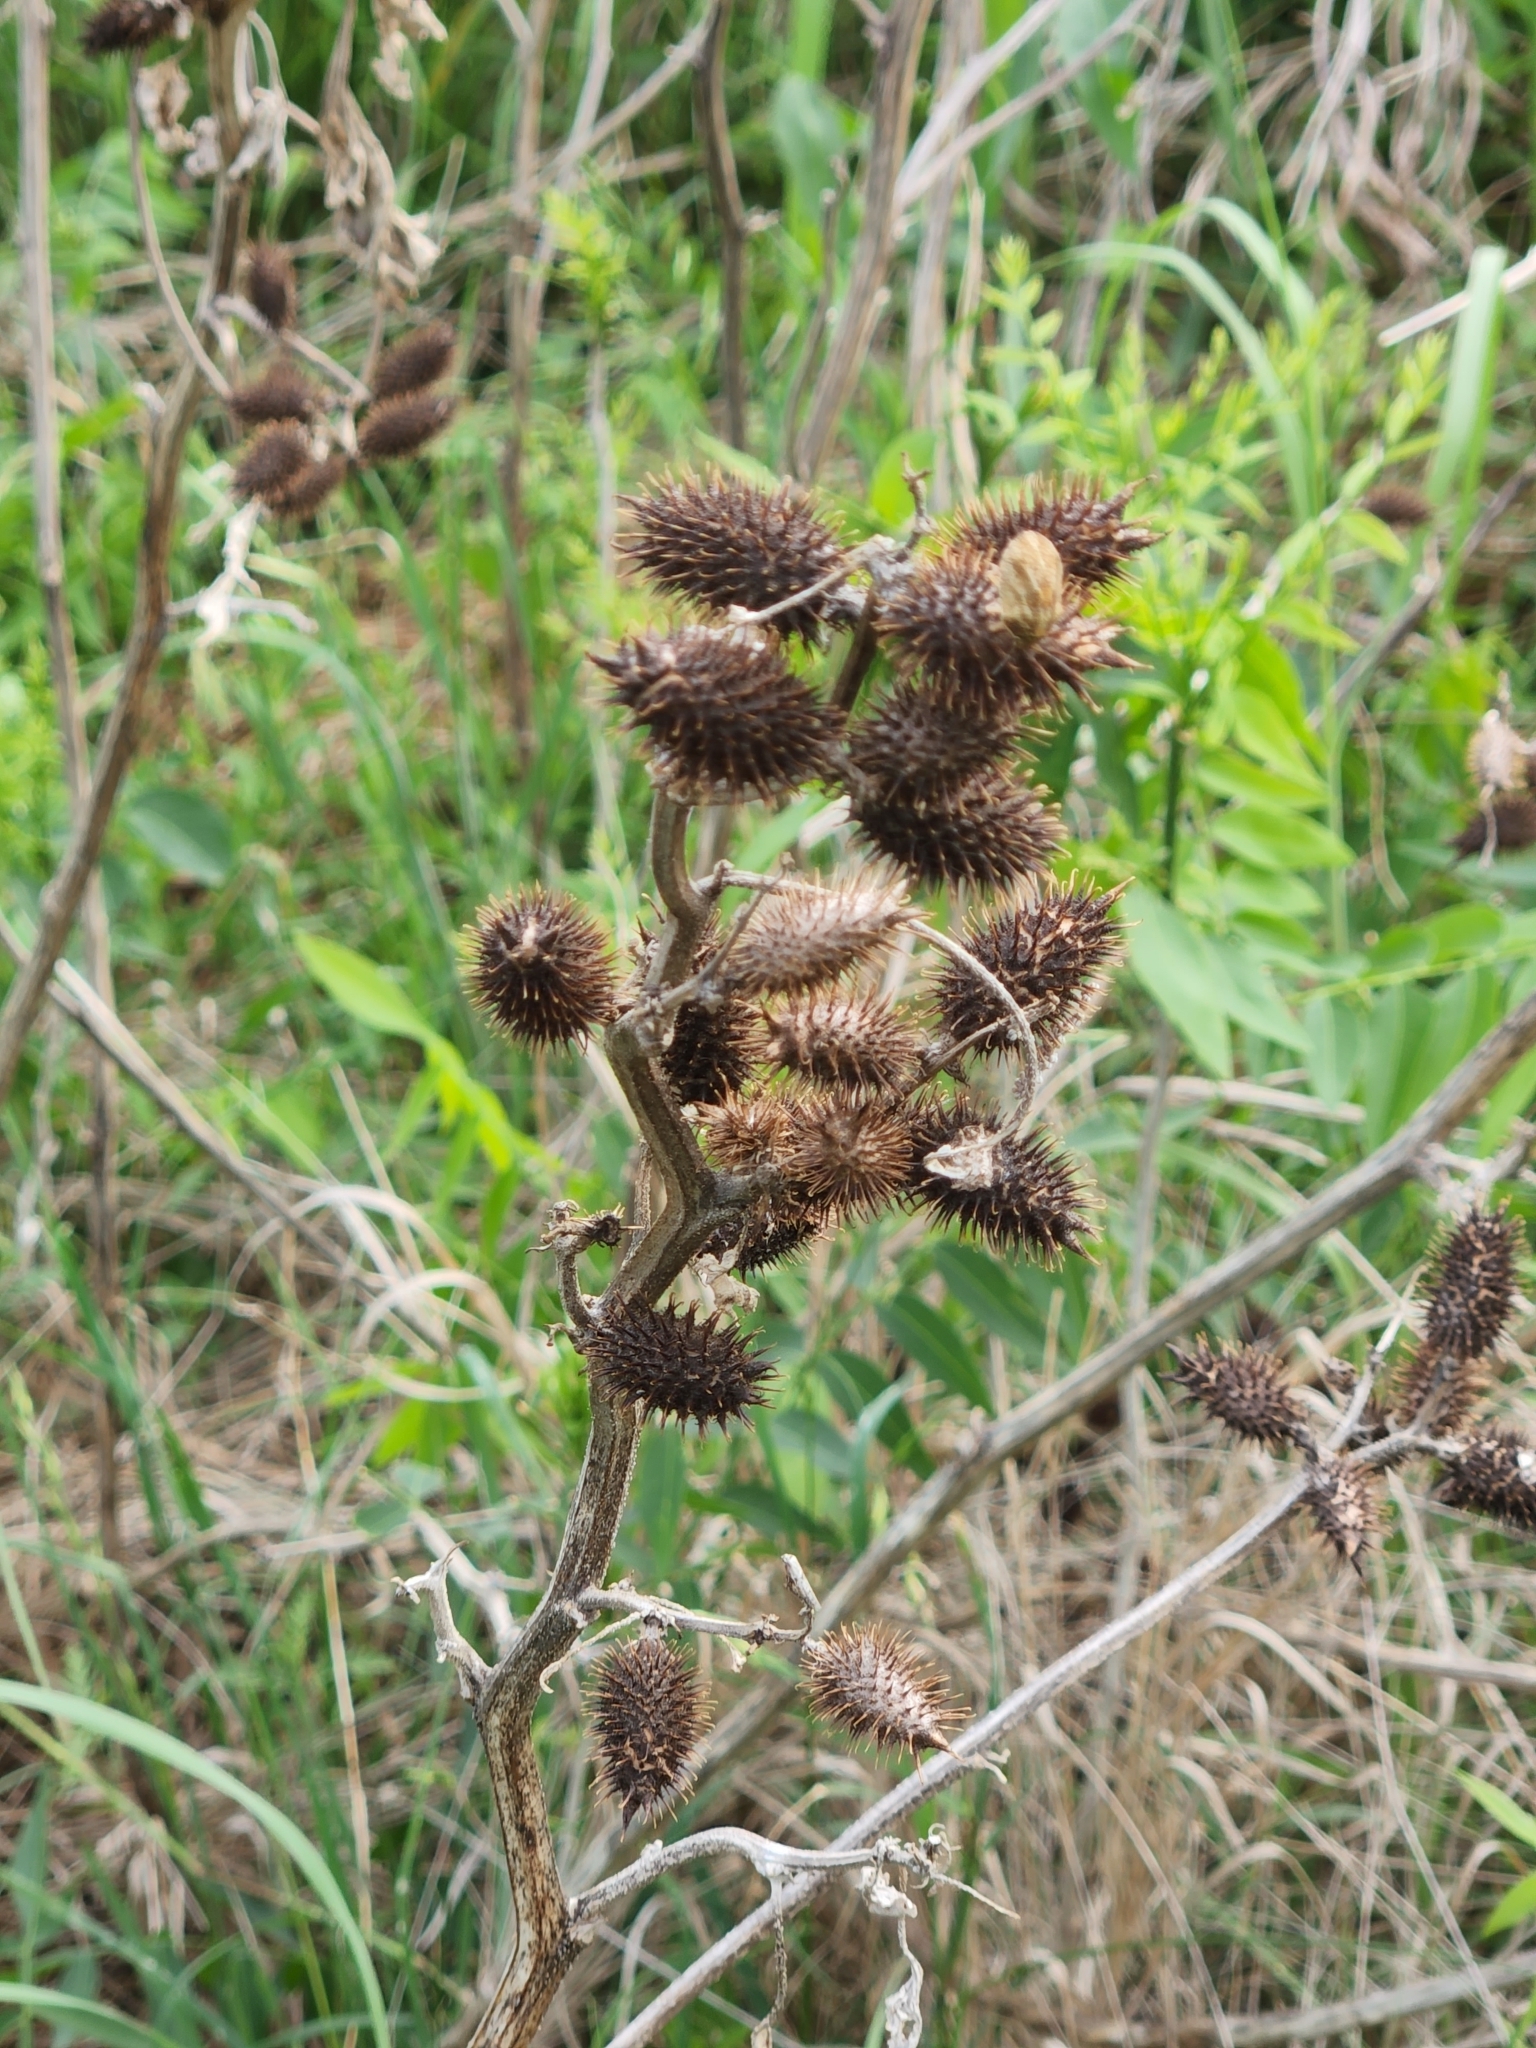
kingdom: Plantae
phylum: Tracheophyta
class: Magnoliopsida
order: Asterales
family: Asteraceae
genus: Xanthium
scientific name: Xanthium strumarium
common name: Rough cocklebur
